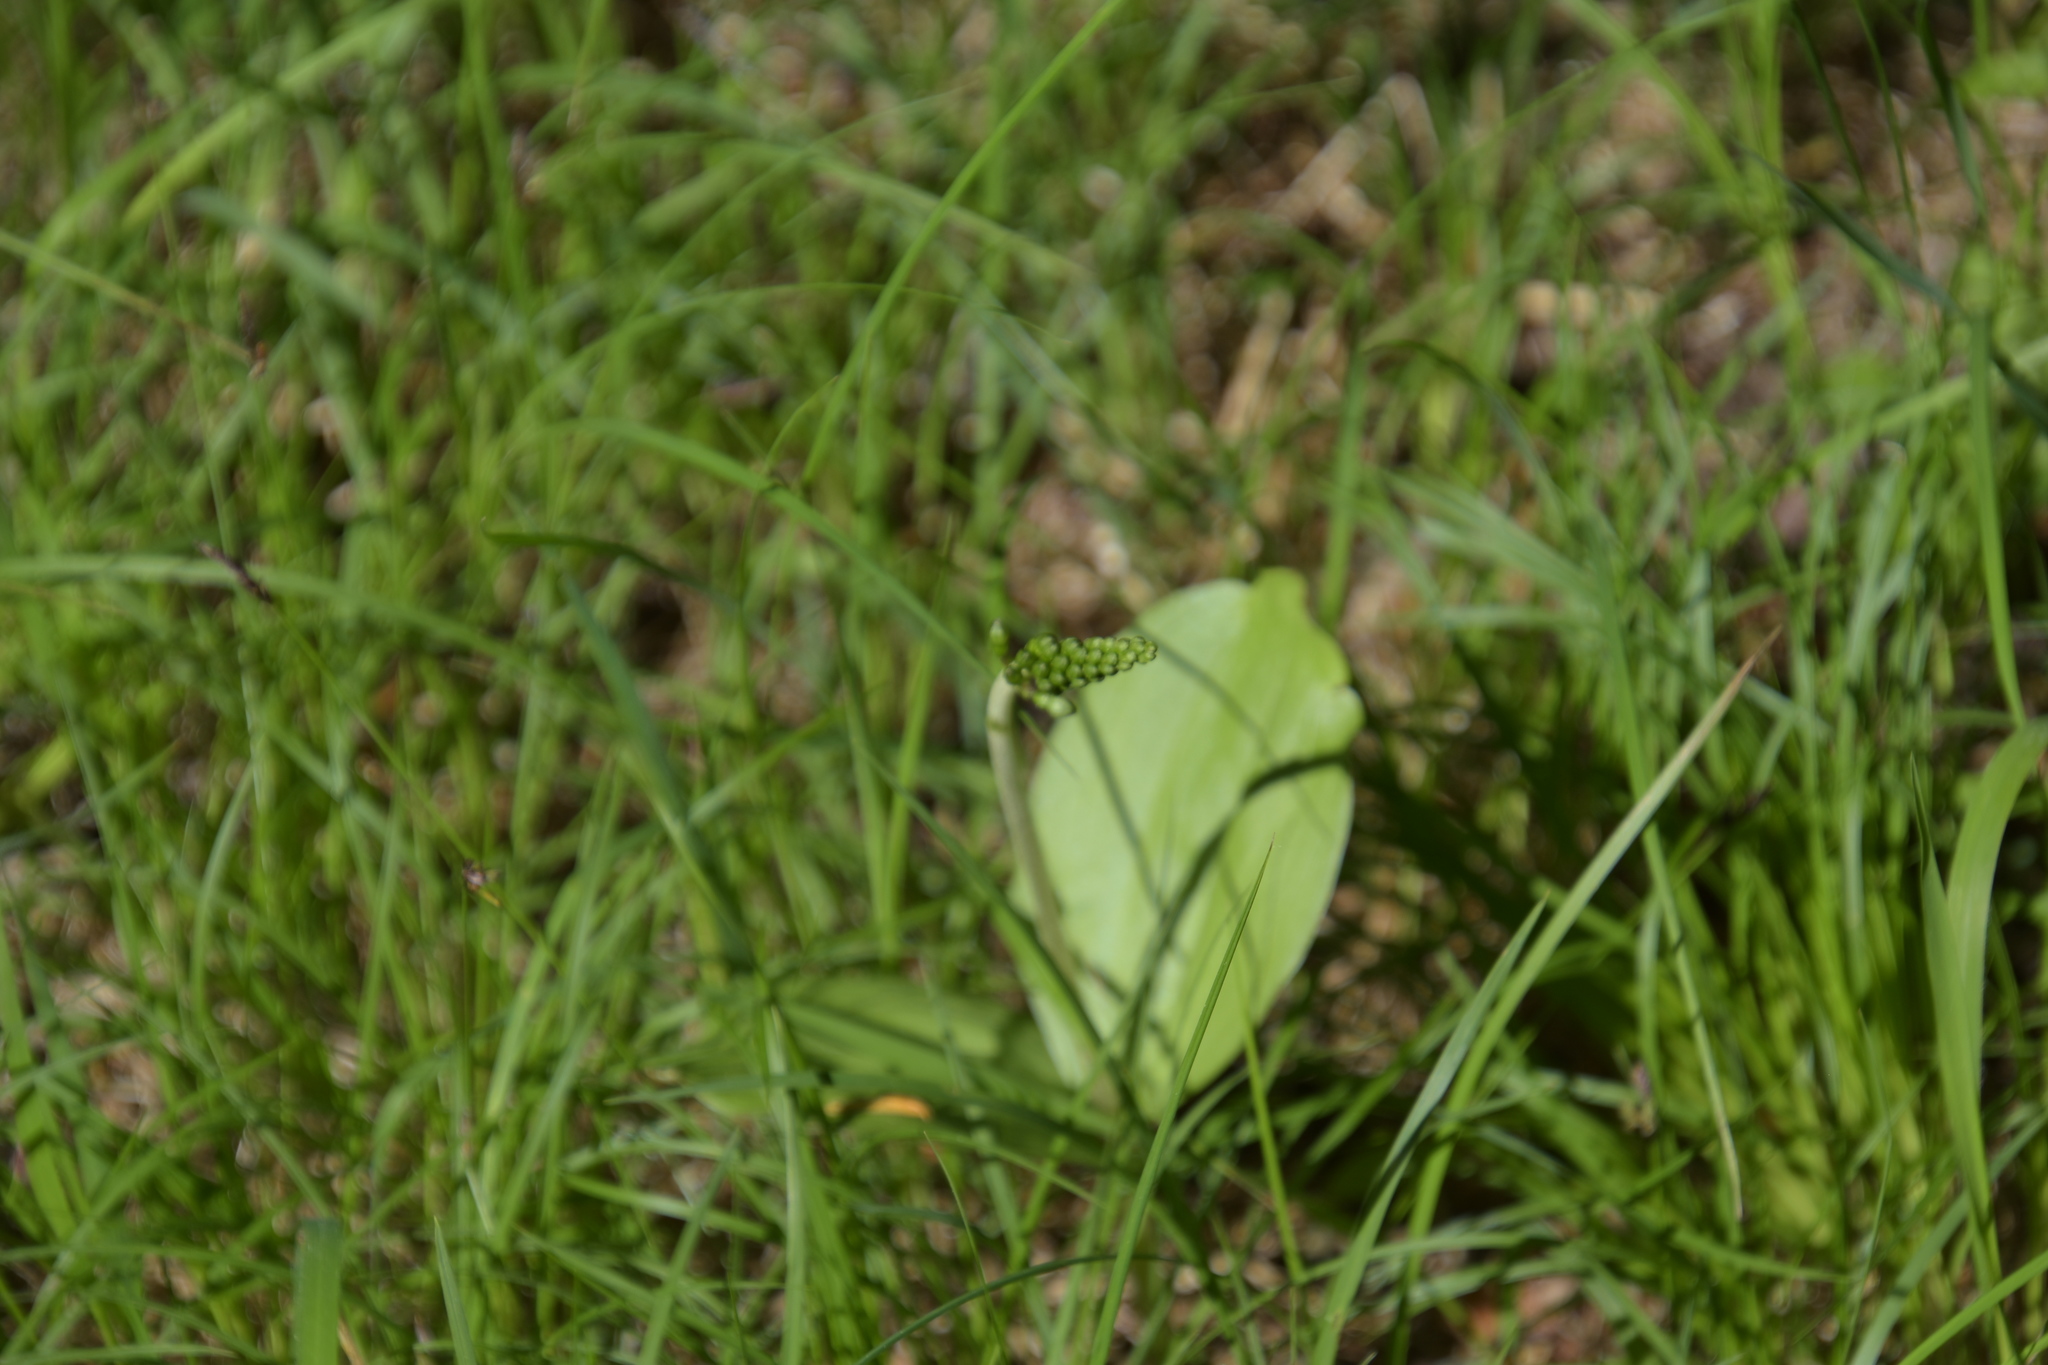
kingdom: Plantae
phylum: Tracheophyta
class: Liliopsida
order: Asparagales
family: Orchidaceae
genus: Neottia
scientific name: Neottia ovata
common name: Common twayblade
